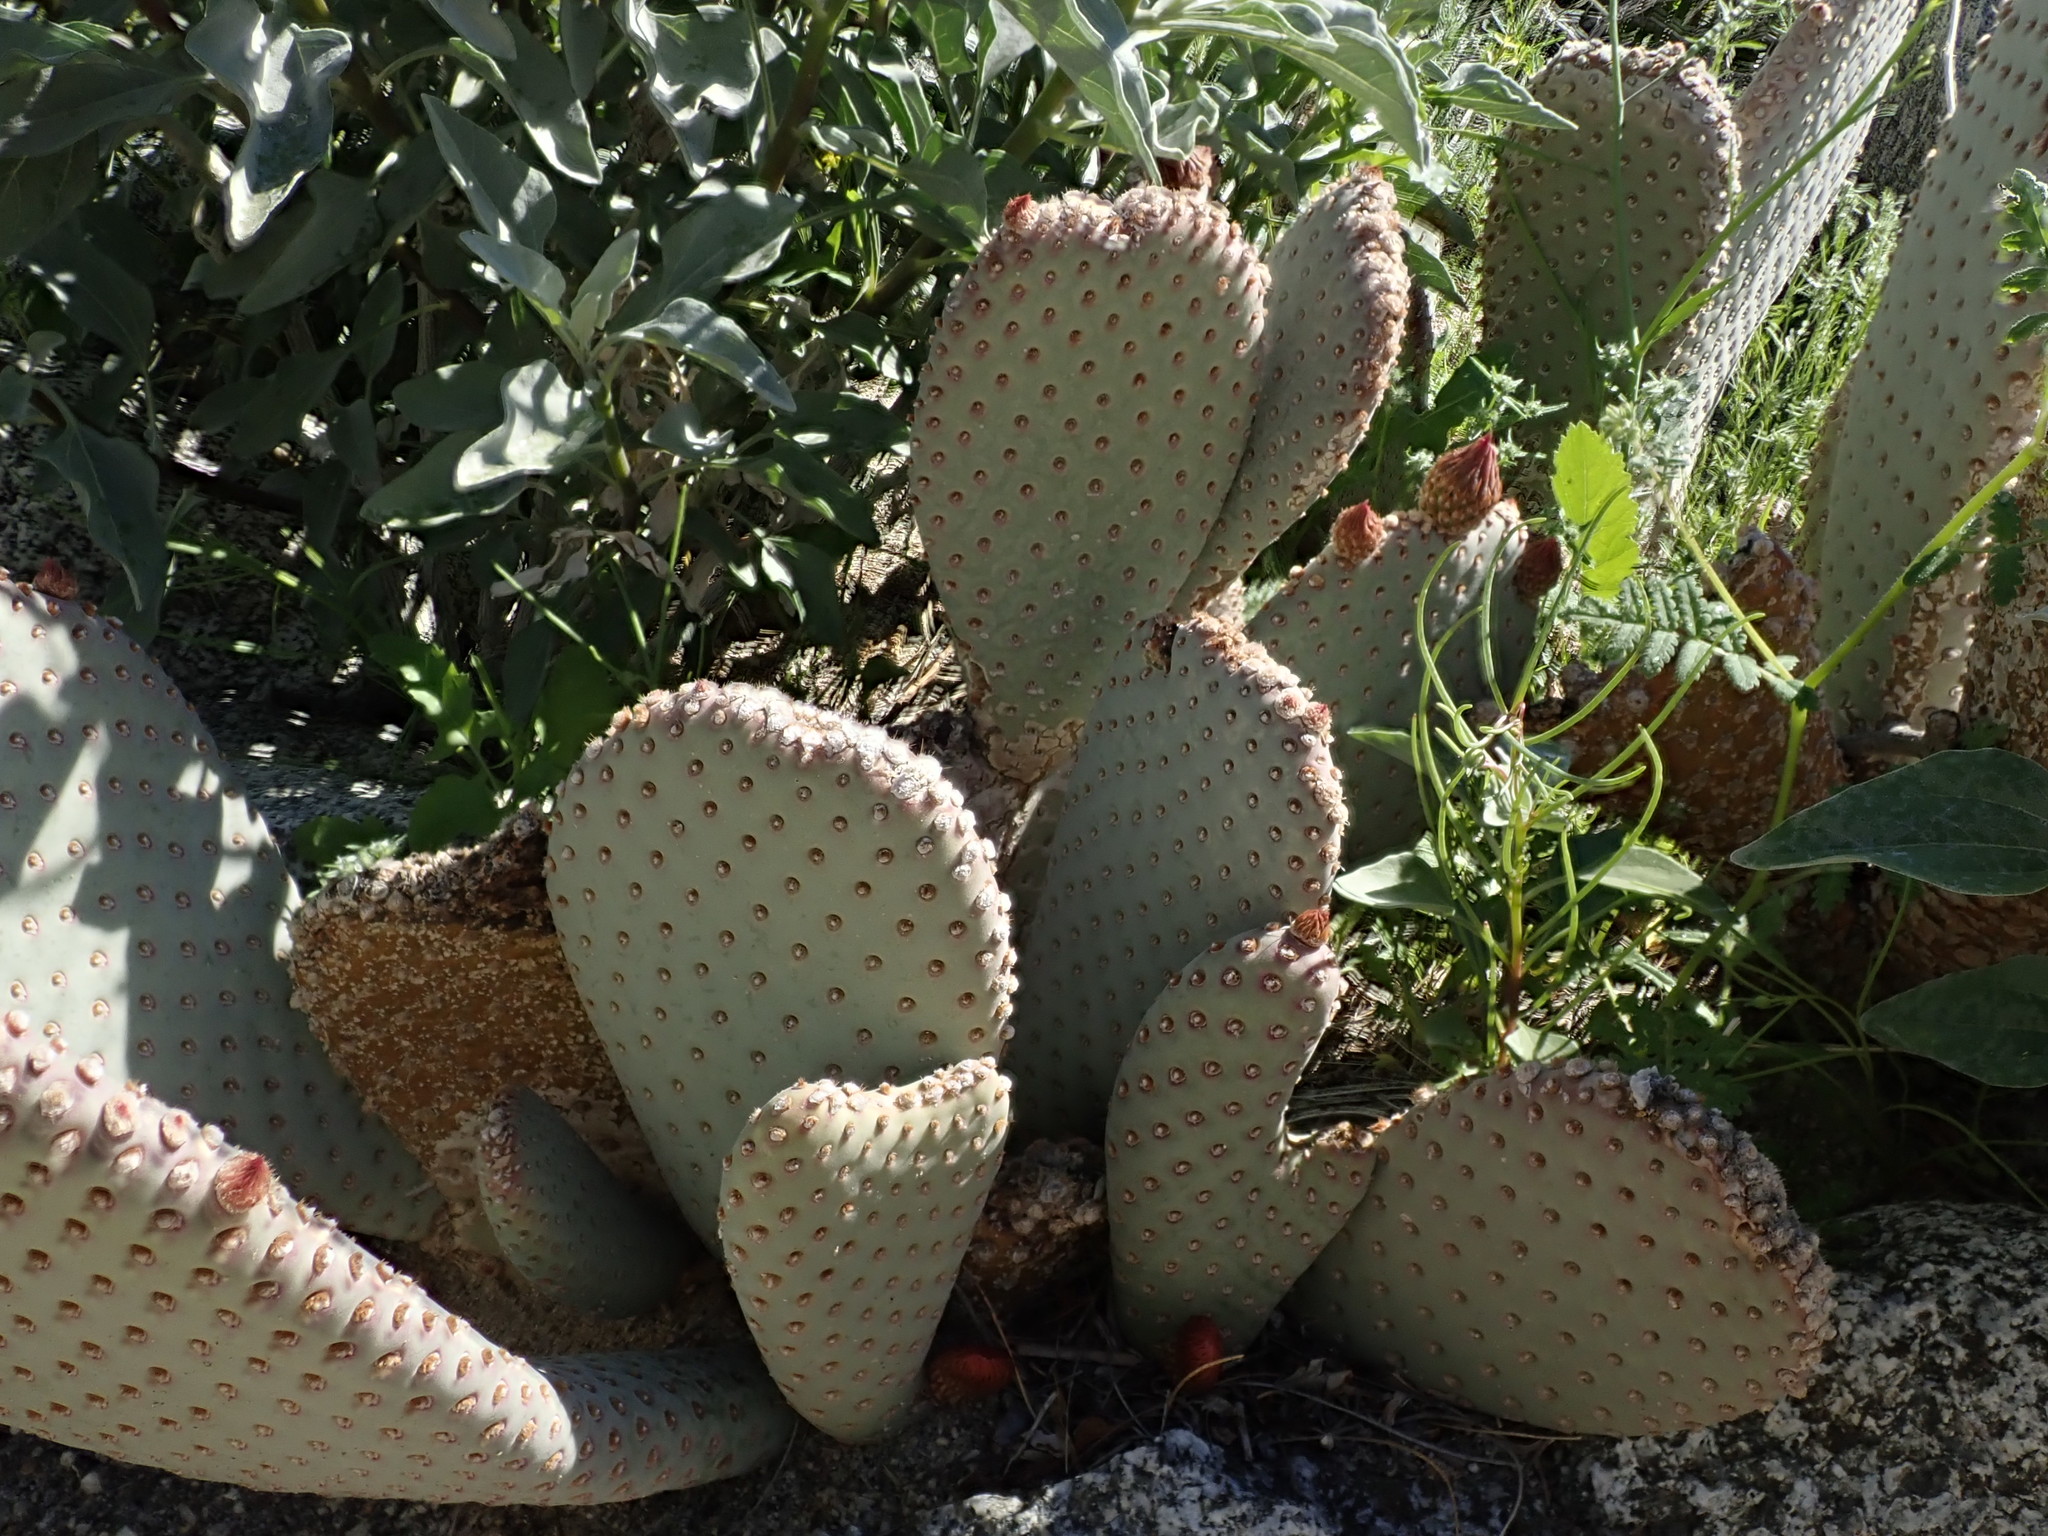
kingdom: Plantae
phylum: Tracheophyta
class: Magnoliopsida
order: Caryophyllales
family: Cactaceae
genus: Opuntia
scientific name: Opuntia basilaris
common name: Beavertail prickly-pear
